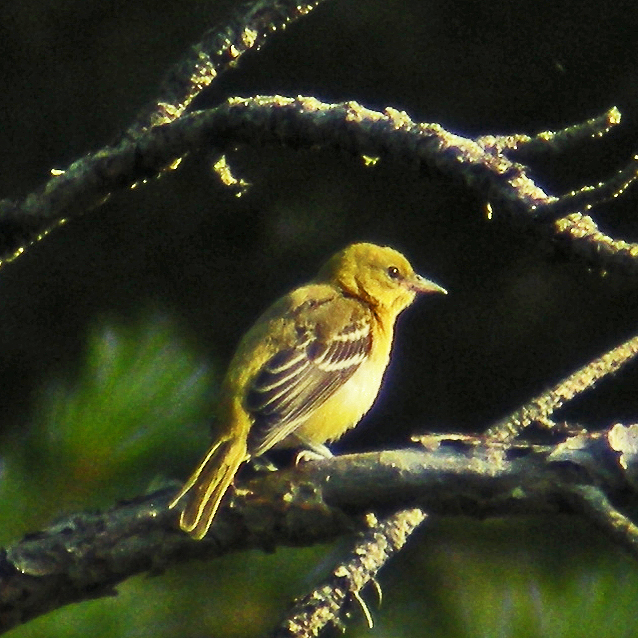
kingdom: Animalia
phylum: Chordata
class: Aves
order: Passeriformes
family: Icteridae
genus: Icterus
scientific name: Icterus spurius
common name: Orchard oriole
